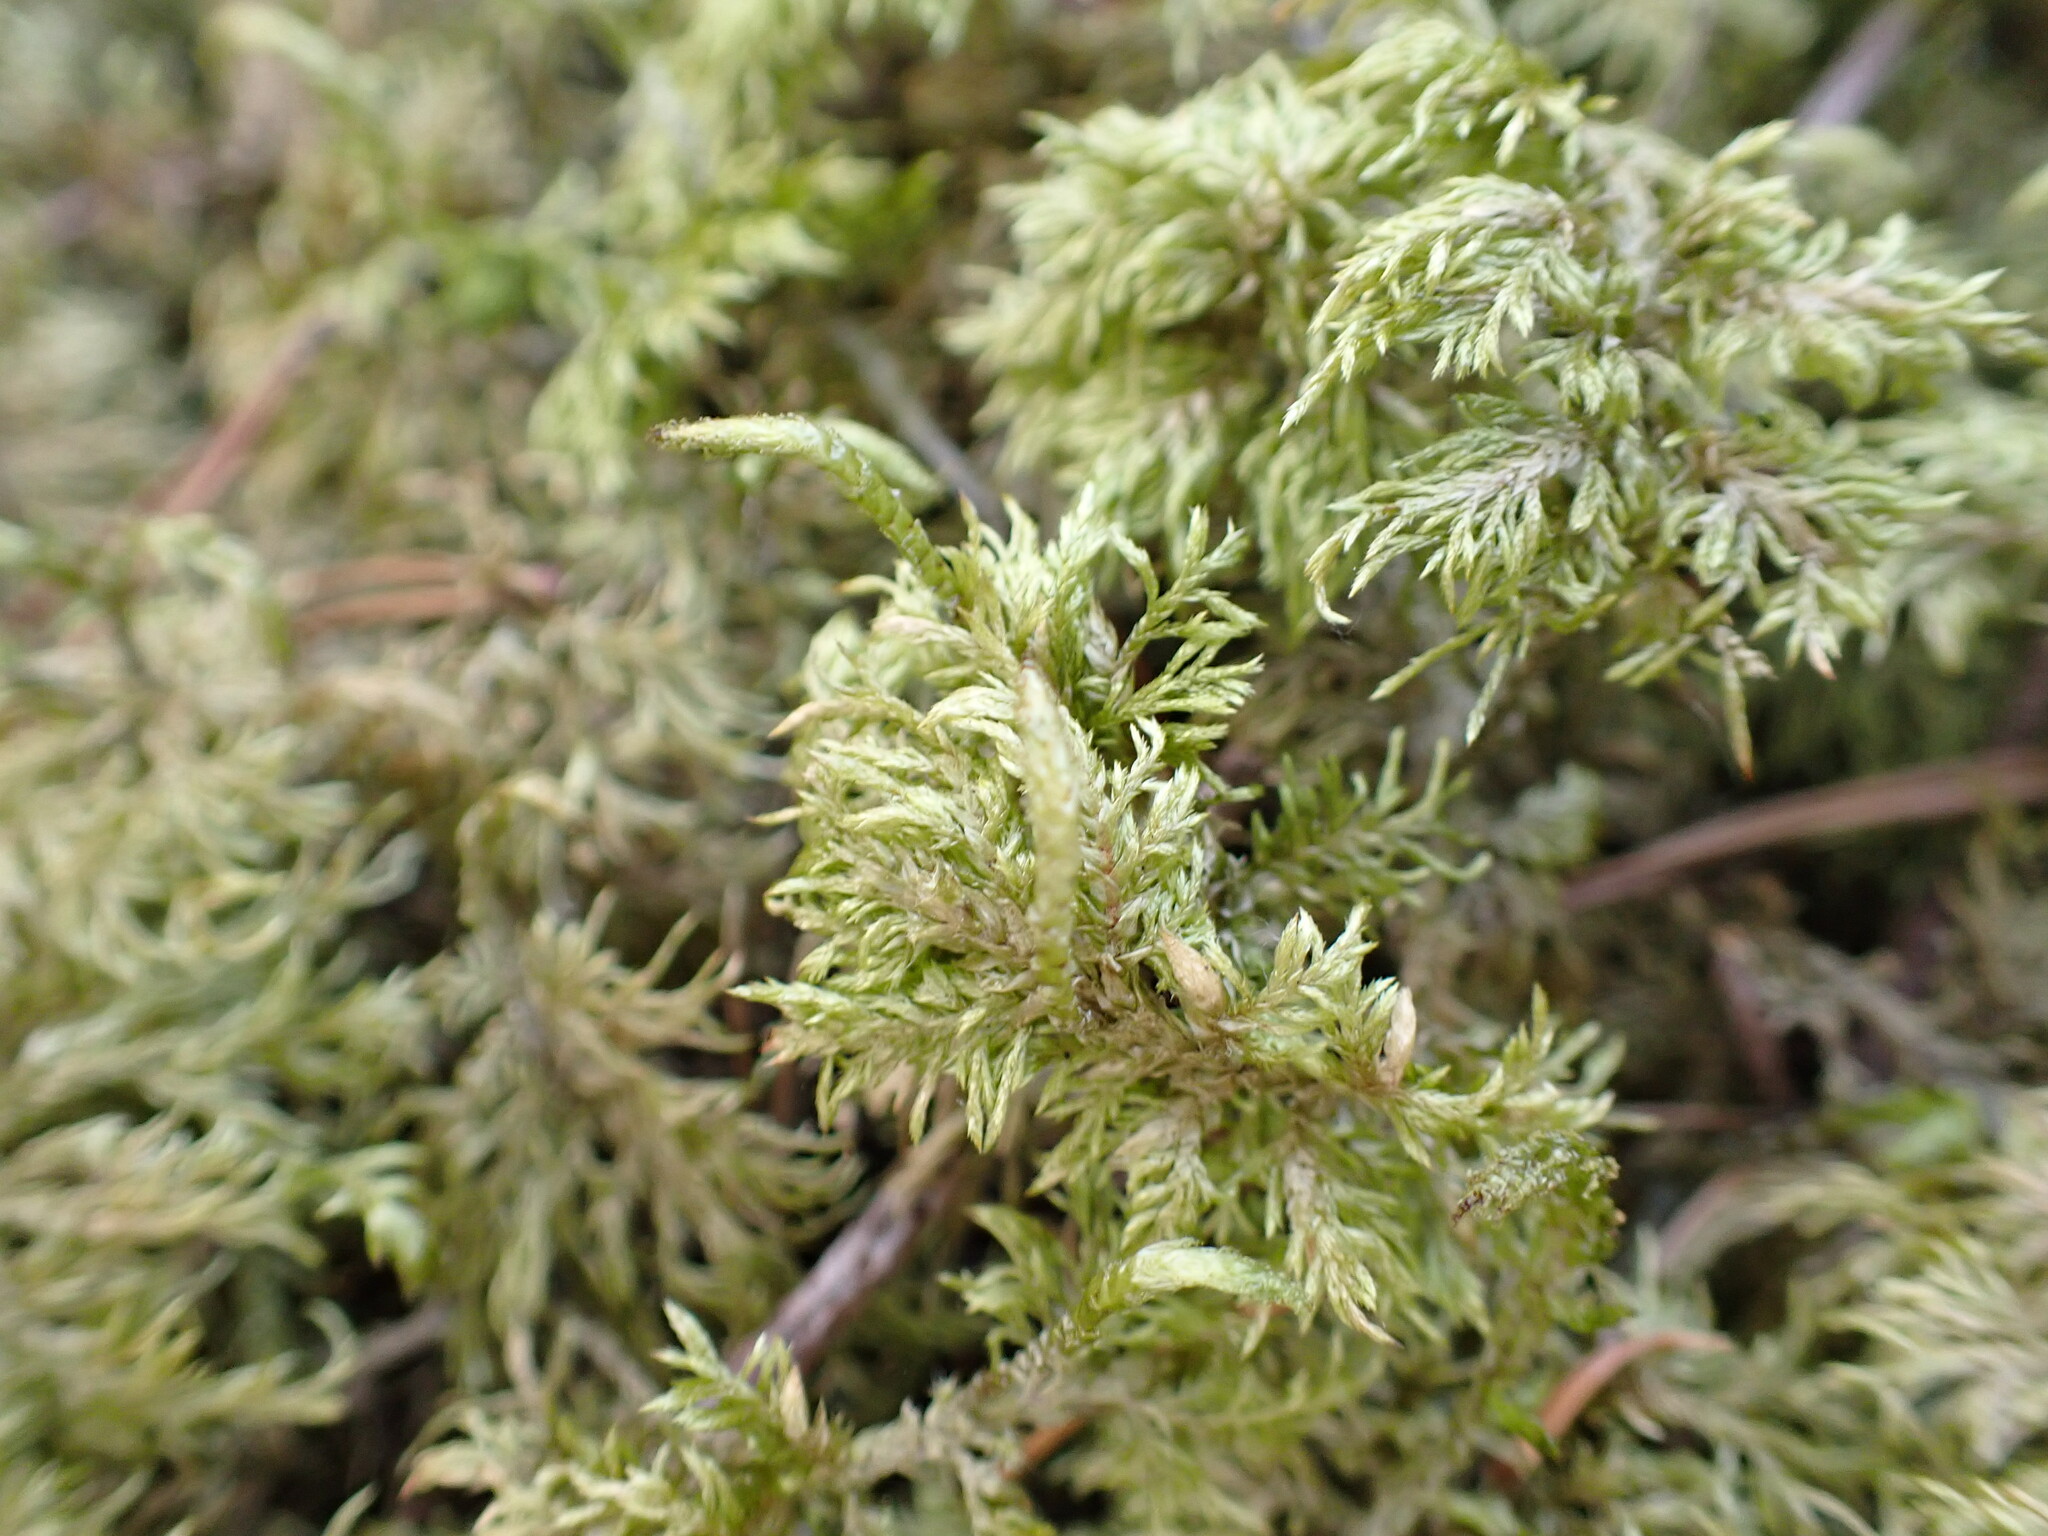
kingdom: Plantae
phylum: Bryophyta
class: Bryopsida
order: Hypnales
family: Hylocomiaceae
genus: Hylocomium
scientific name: Hylocomium splendens
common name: Stairstep moss
